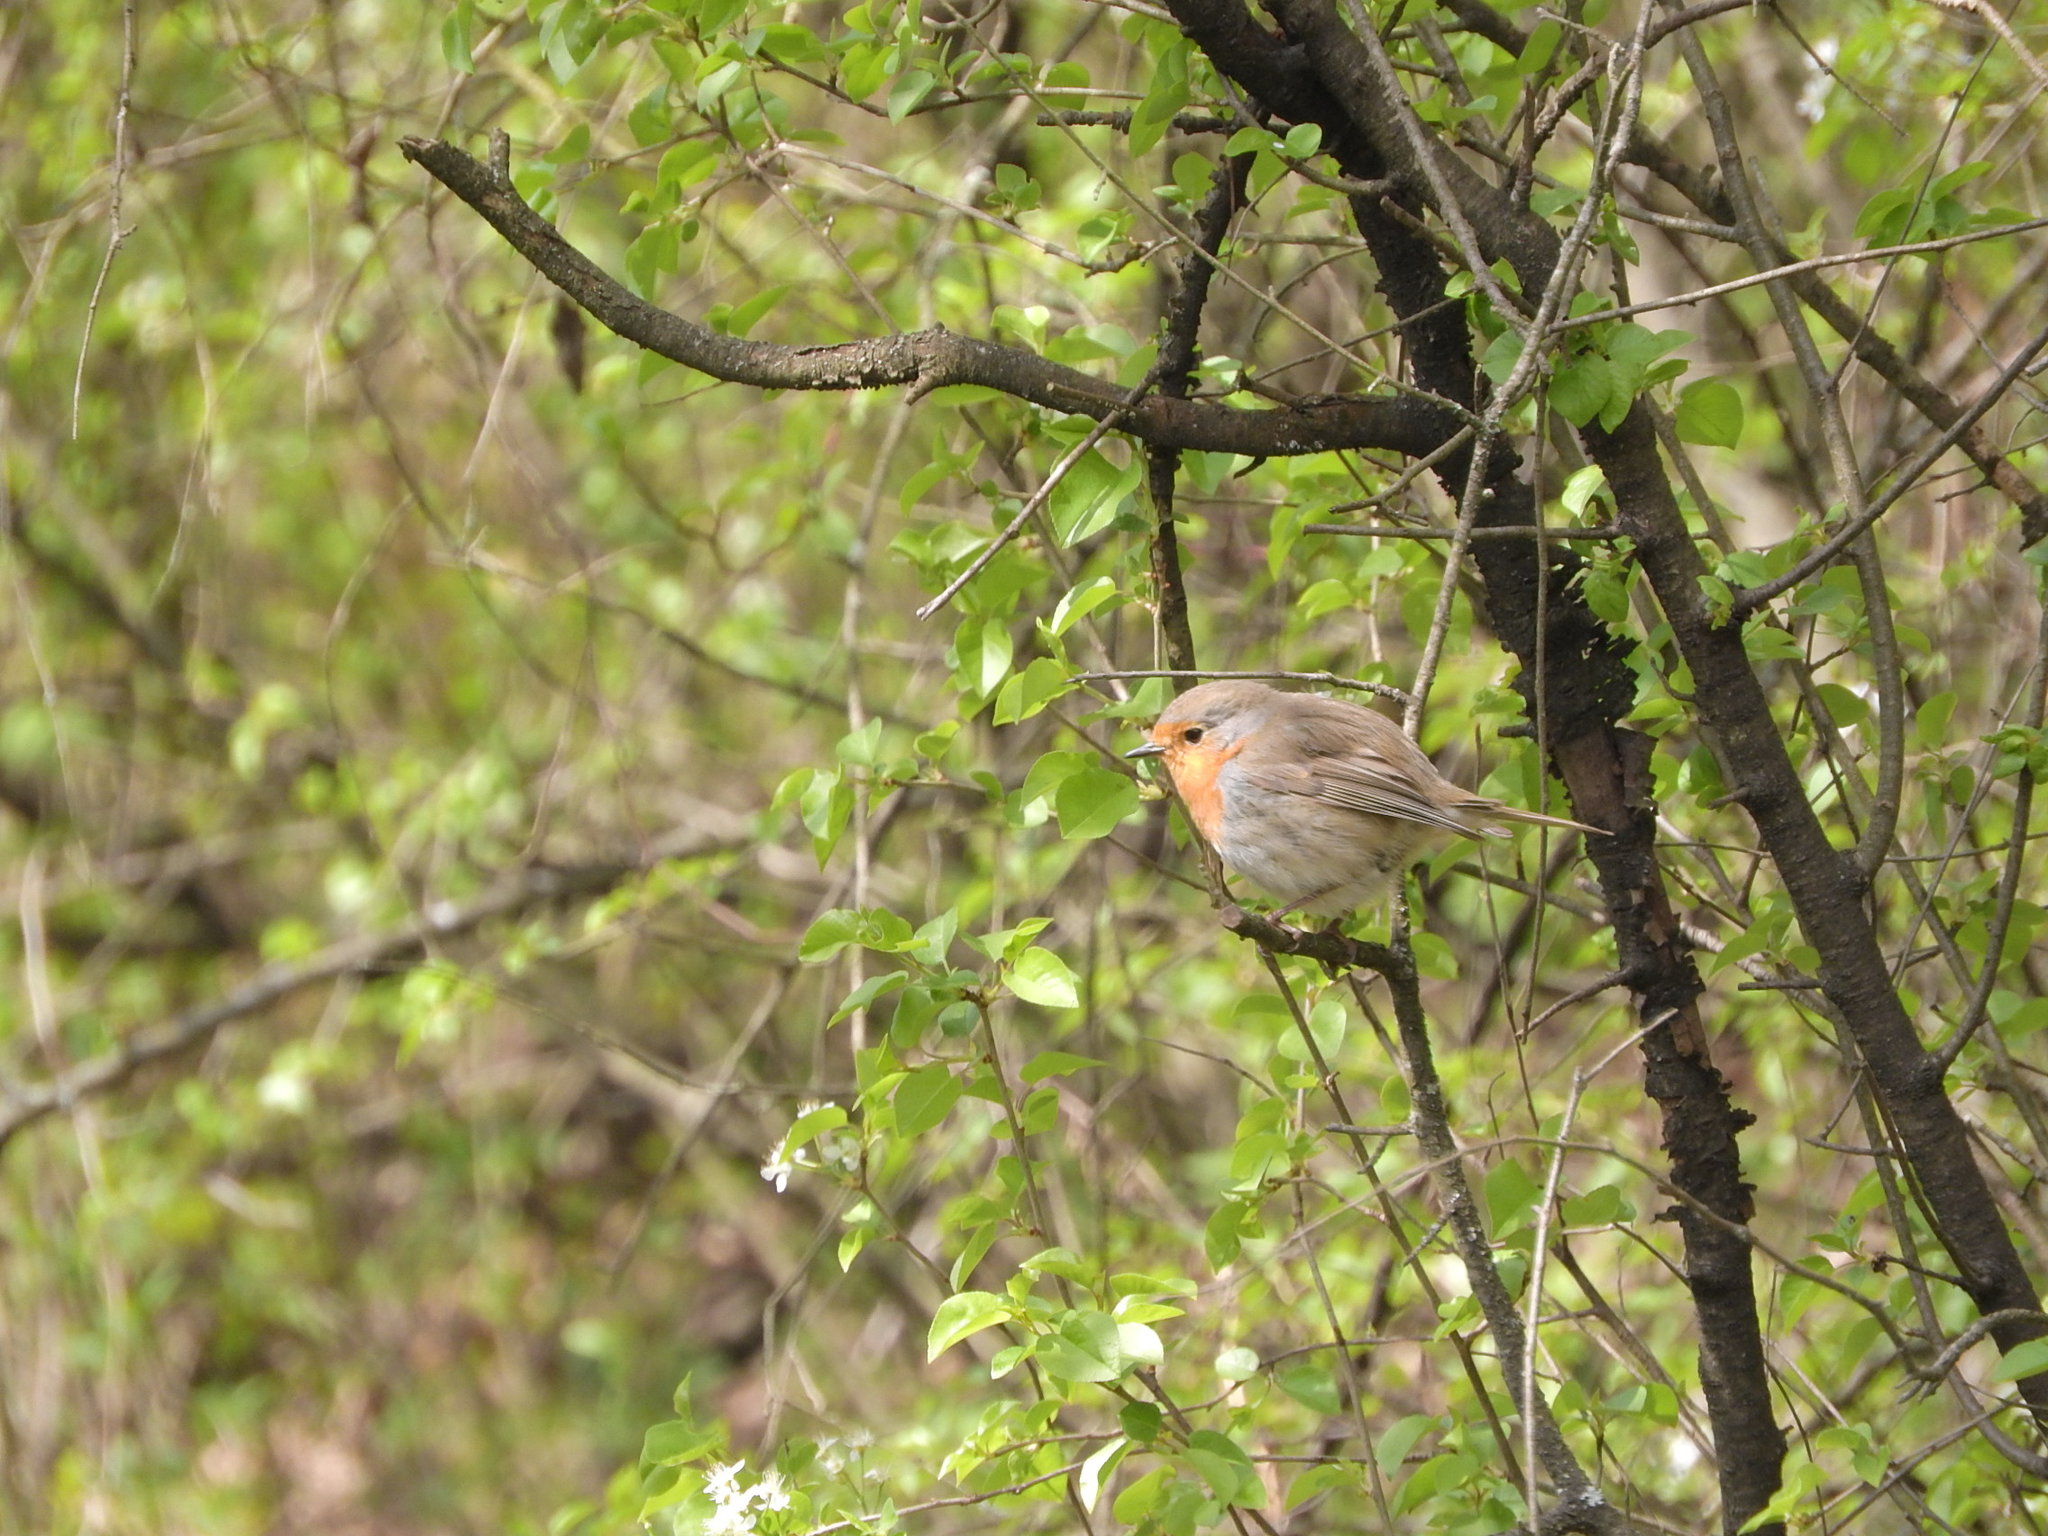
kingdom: Animalia
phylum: Chordata
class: Aves
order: Passeriformes
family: Muscicapidae
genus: Erithacus
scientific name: Erithacus rubecula
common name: European robin
